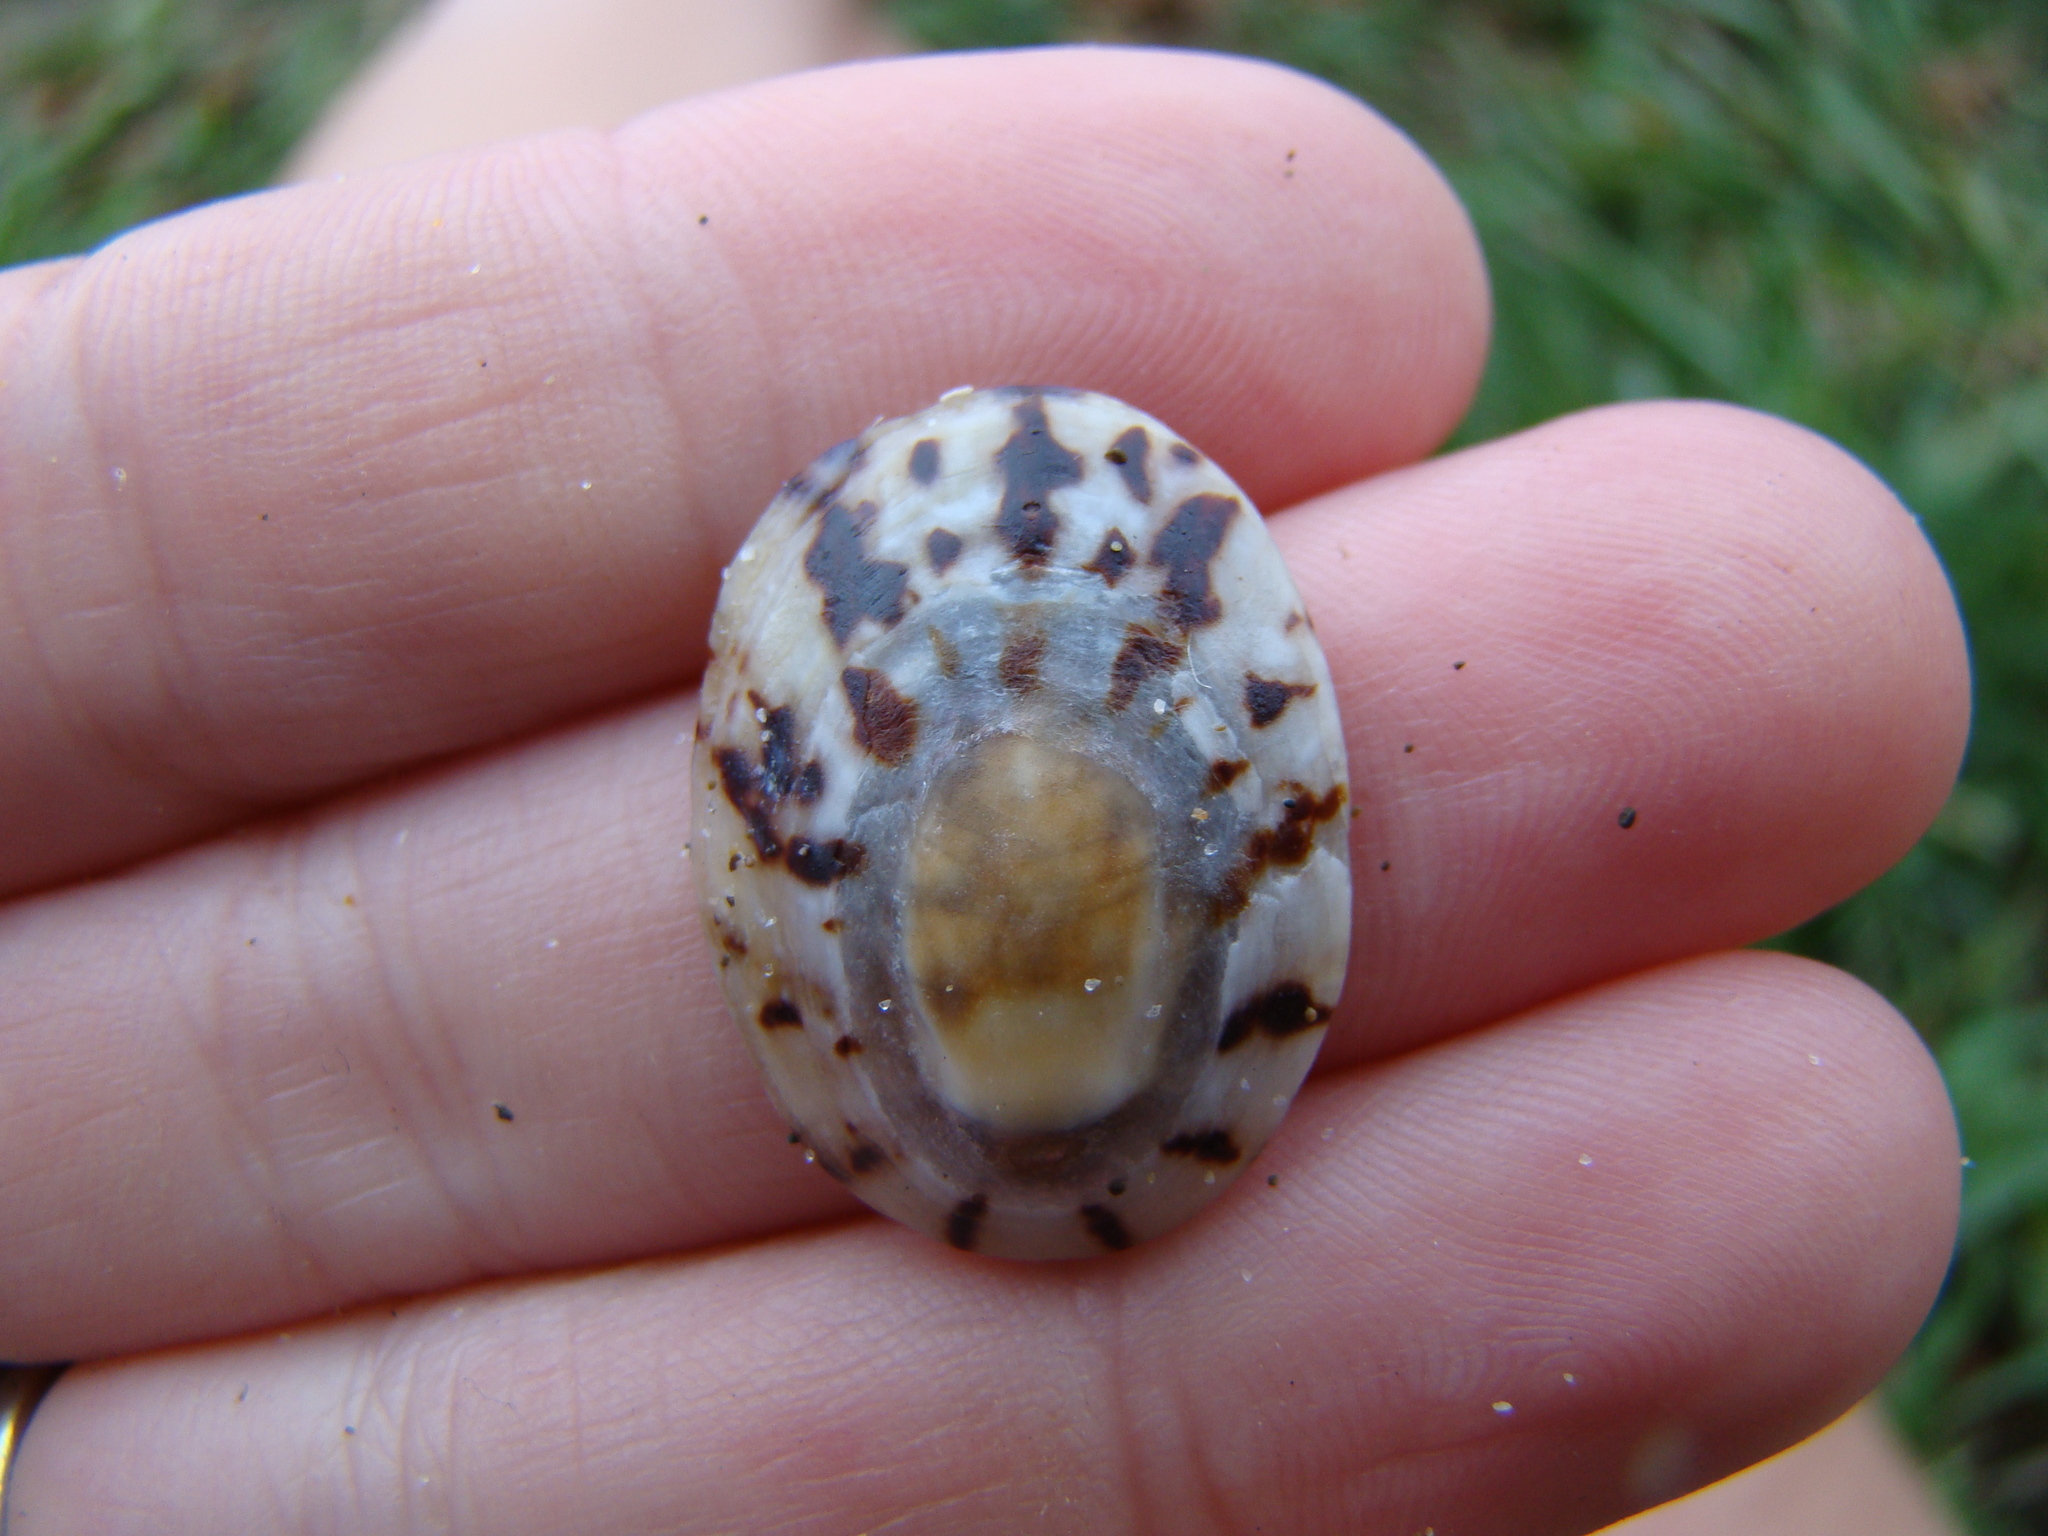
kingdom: Animalia
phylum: Mollusca
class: Gastropoda
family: Nacellidae
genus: Cellana
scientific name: Cellana radians
